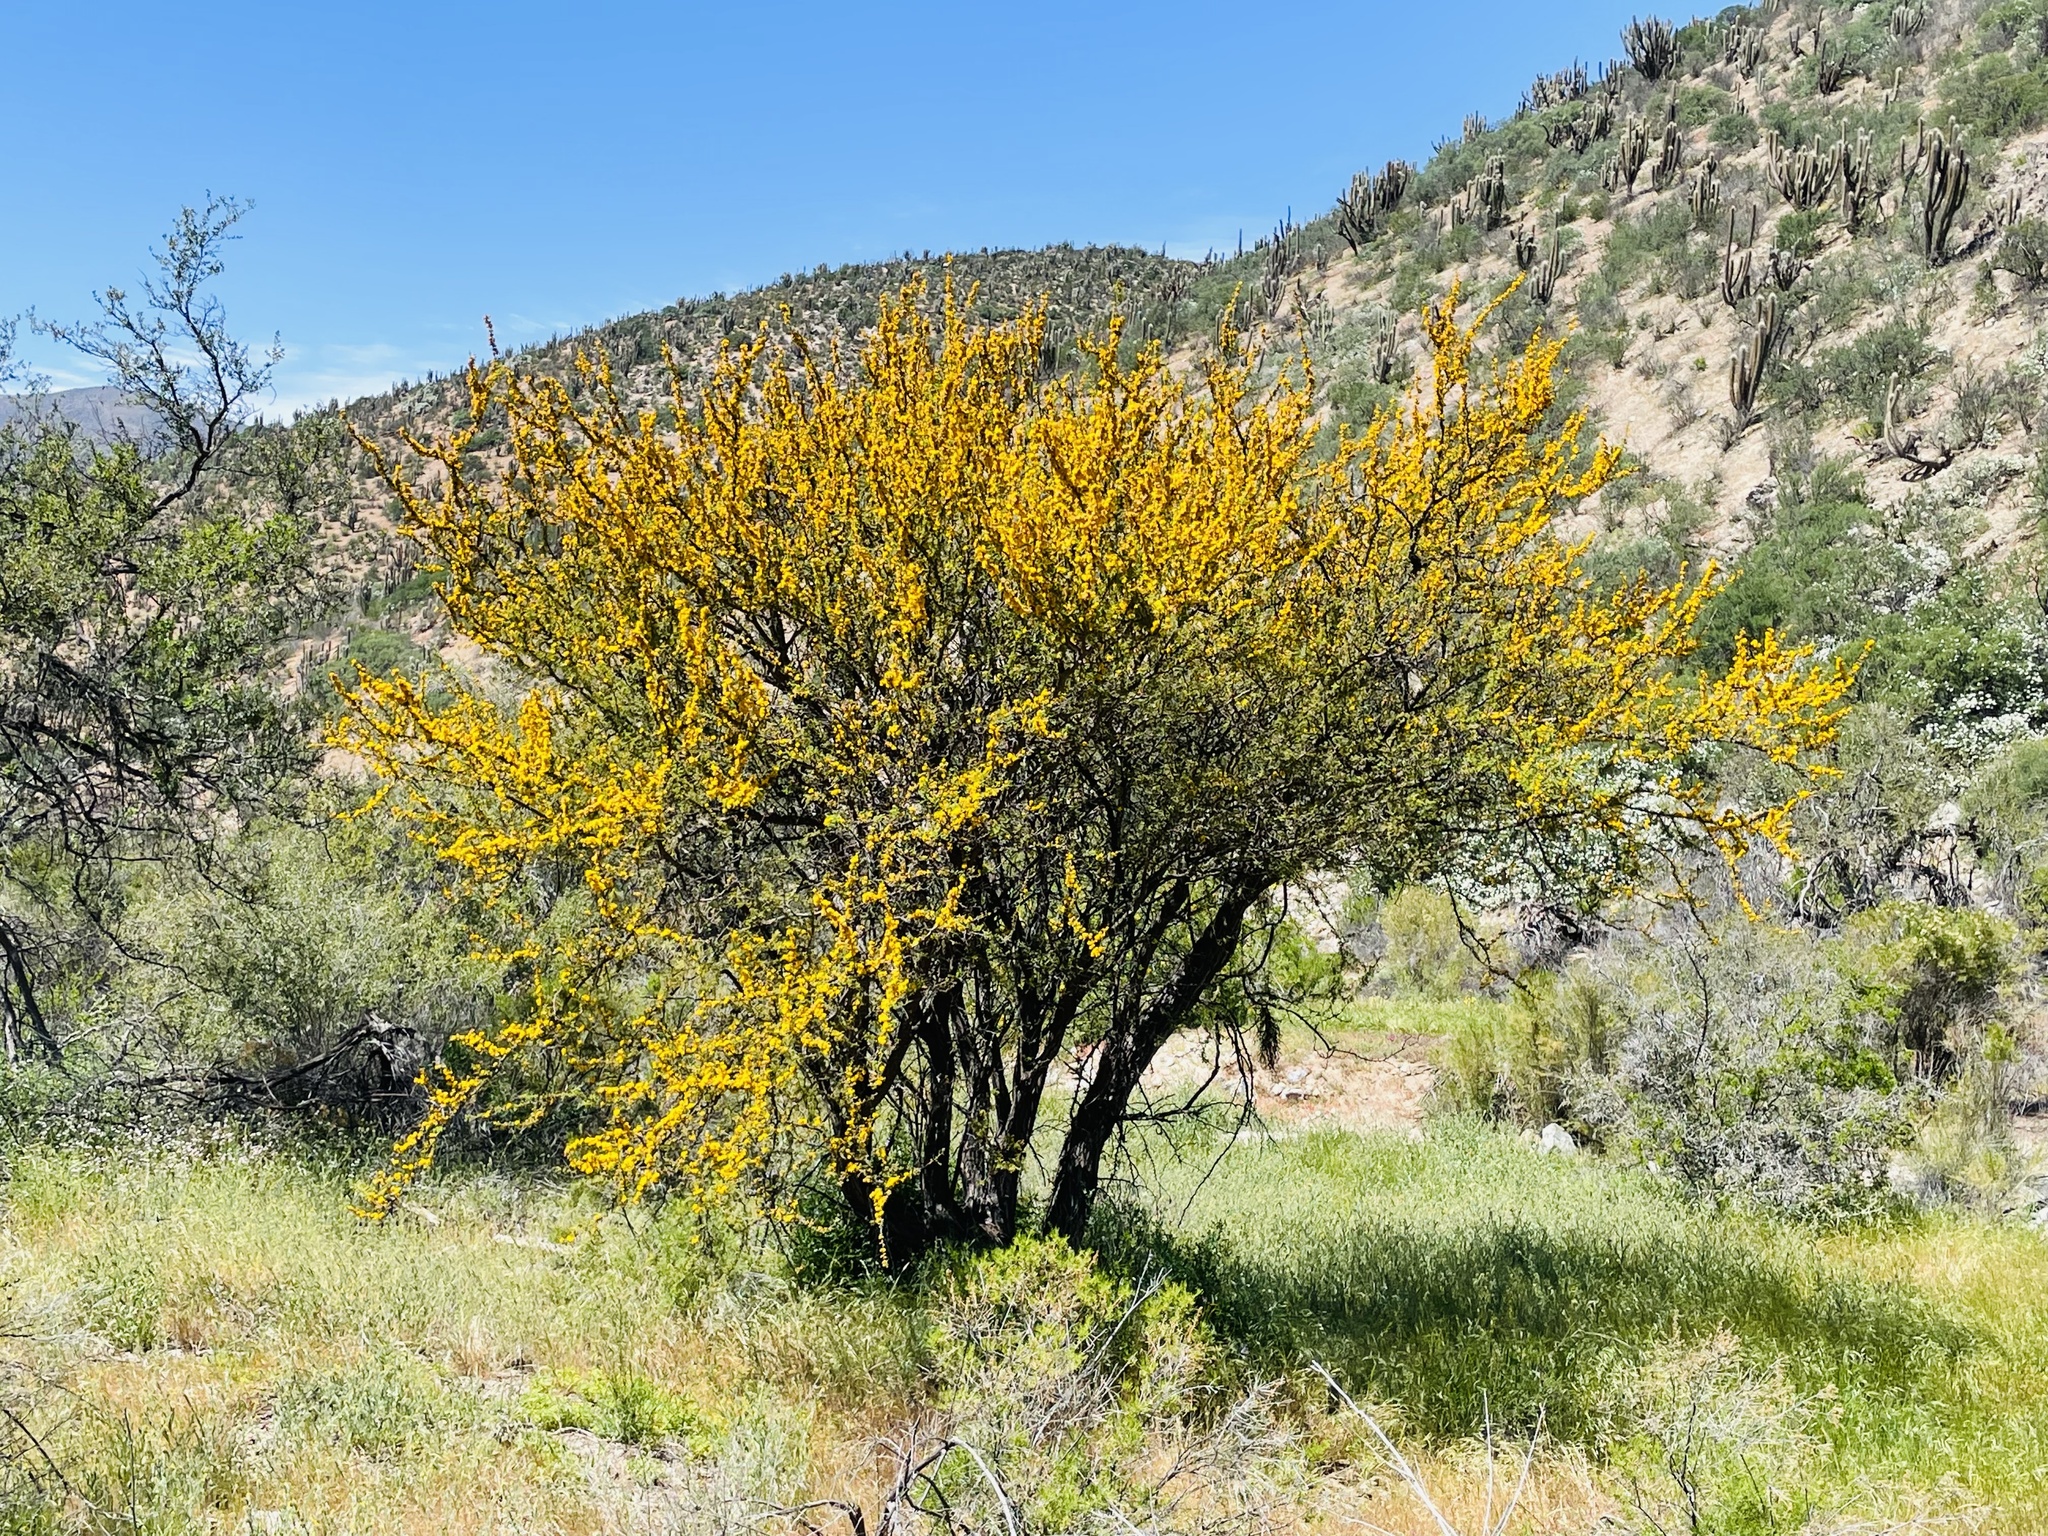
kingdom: Plantae
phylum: Tracheophyta
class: Magnoliopsida
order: Fabales
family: Fabaceae
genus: Vachellia
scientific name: Vachellia caven
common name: Roman cassie
